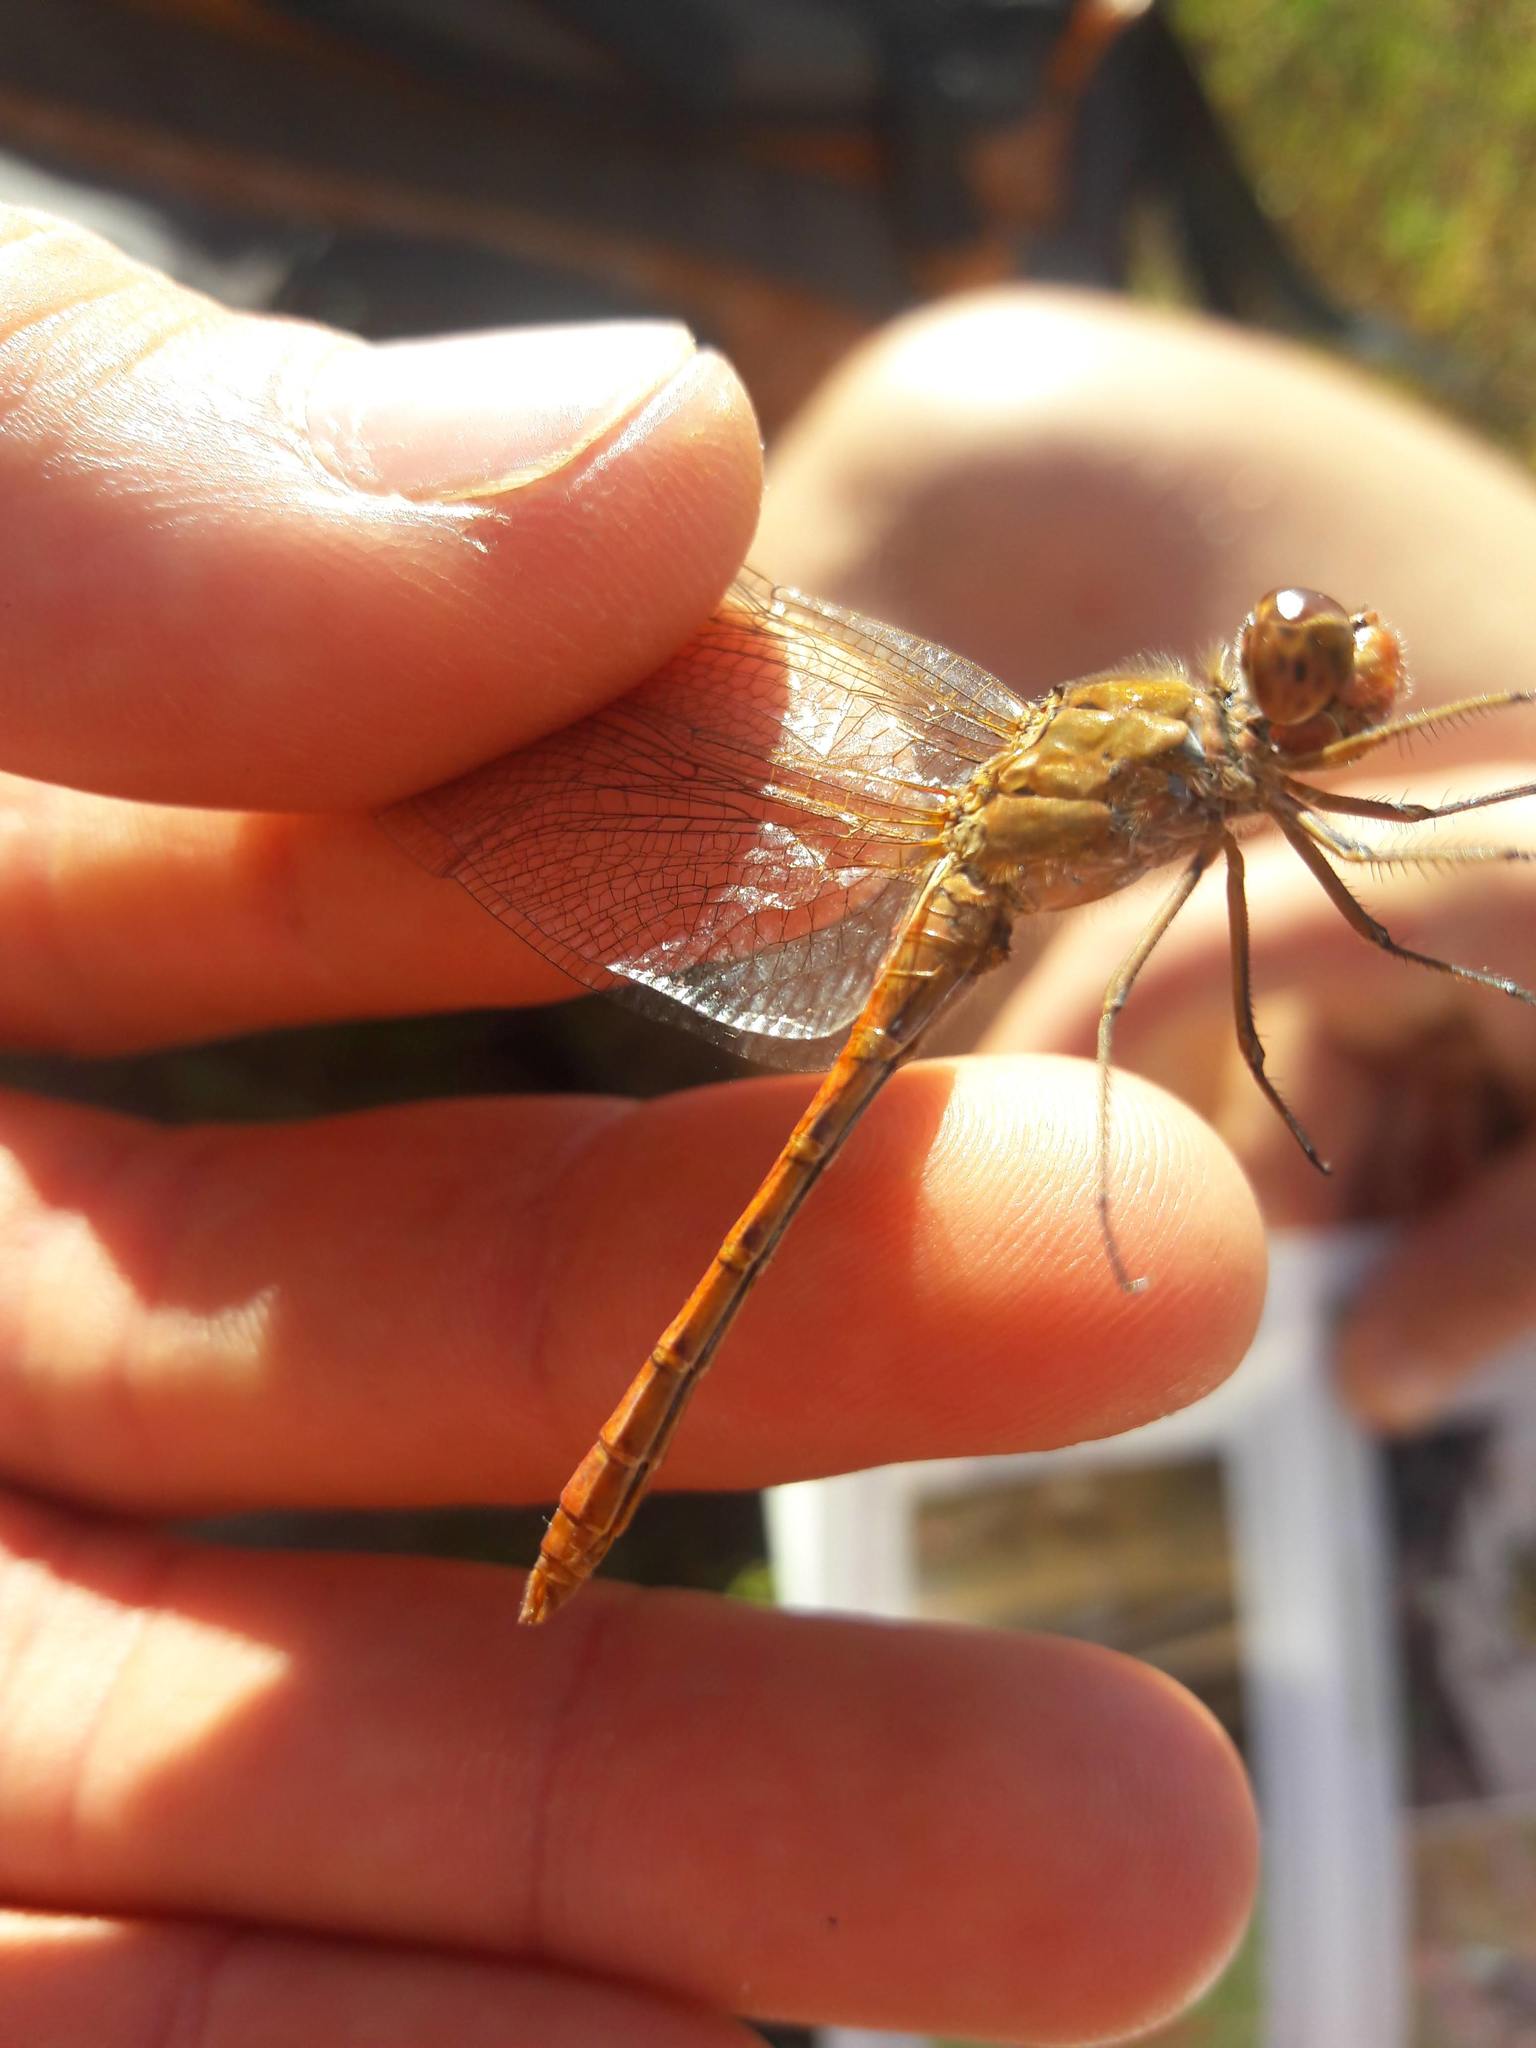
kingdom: Animalia
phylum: Arthropoda
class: Insecta
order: Odonata
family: Libellulidae
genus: Sympetrum
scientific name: Sympetrum meridionale
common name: Southern darter
